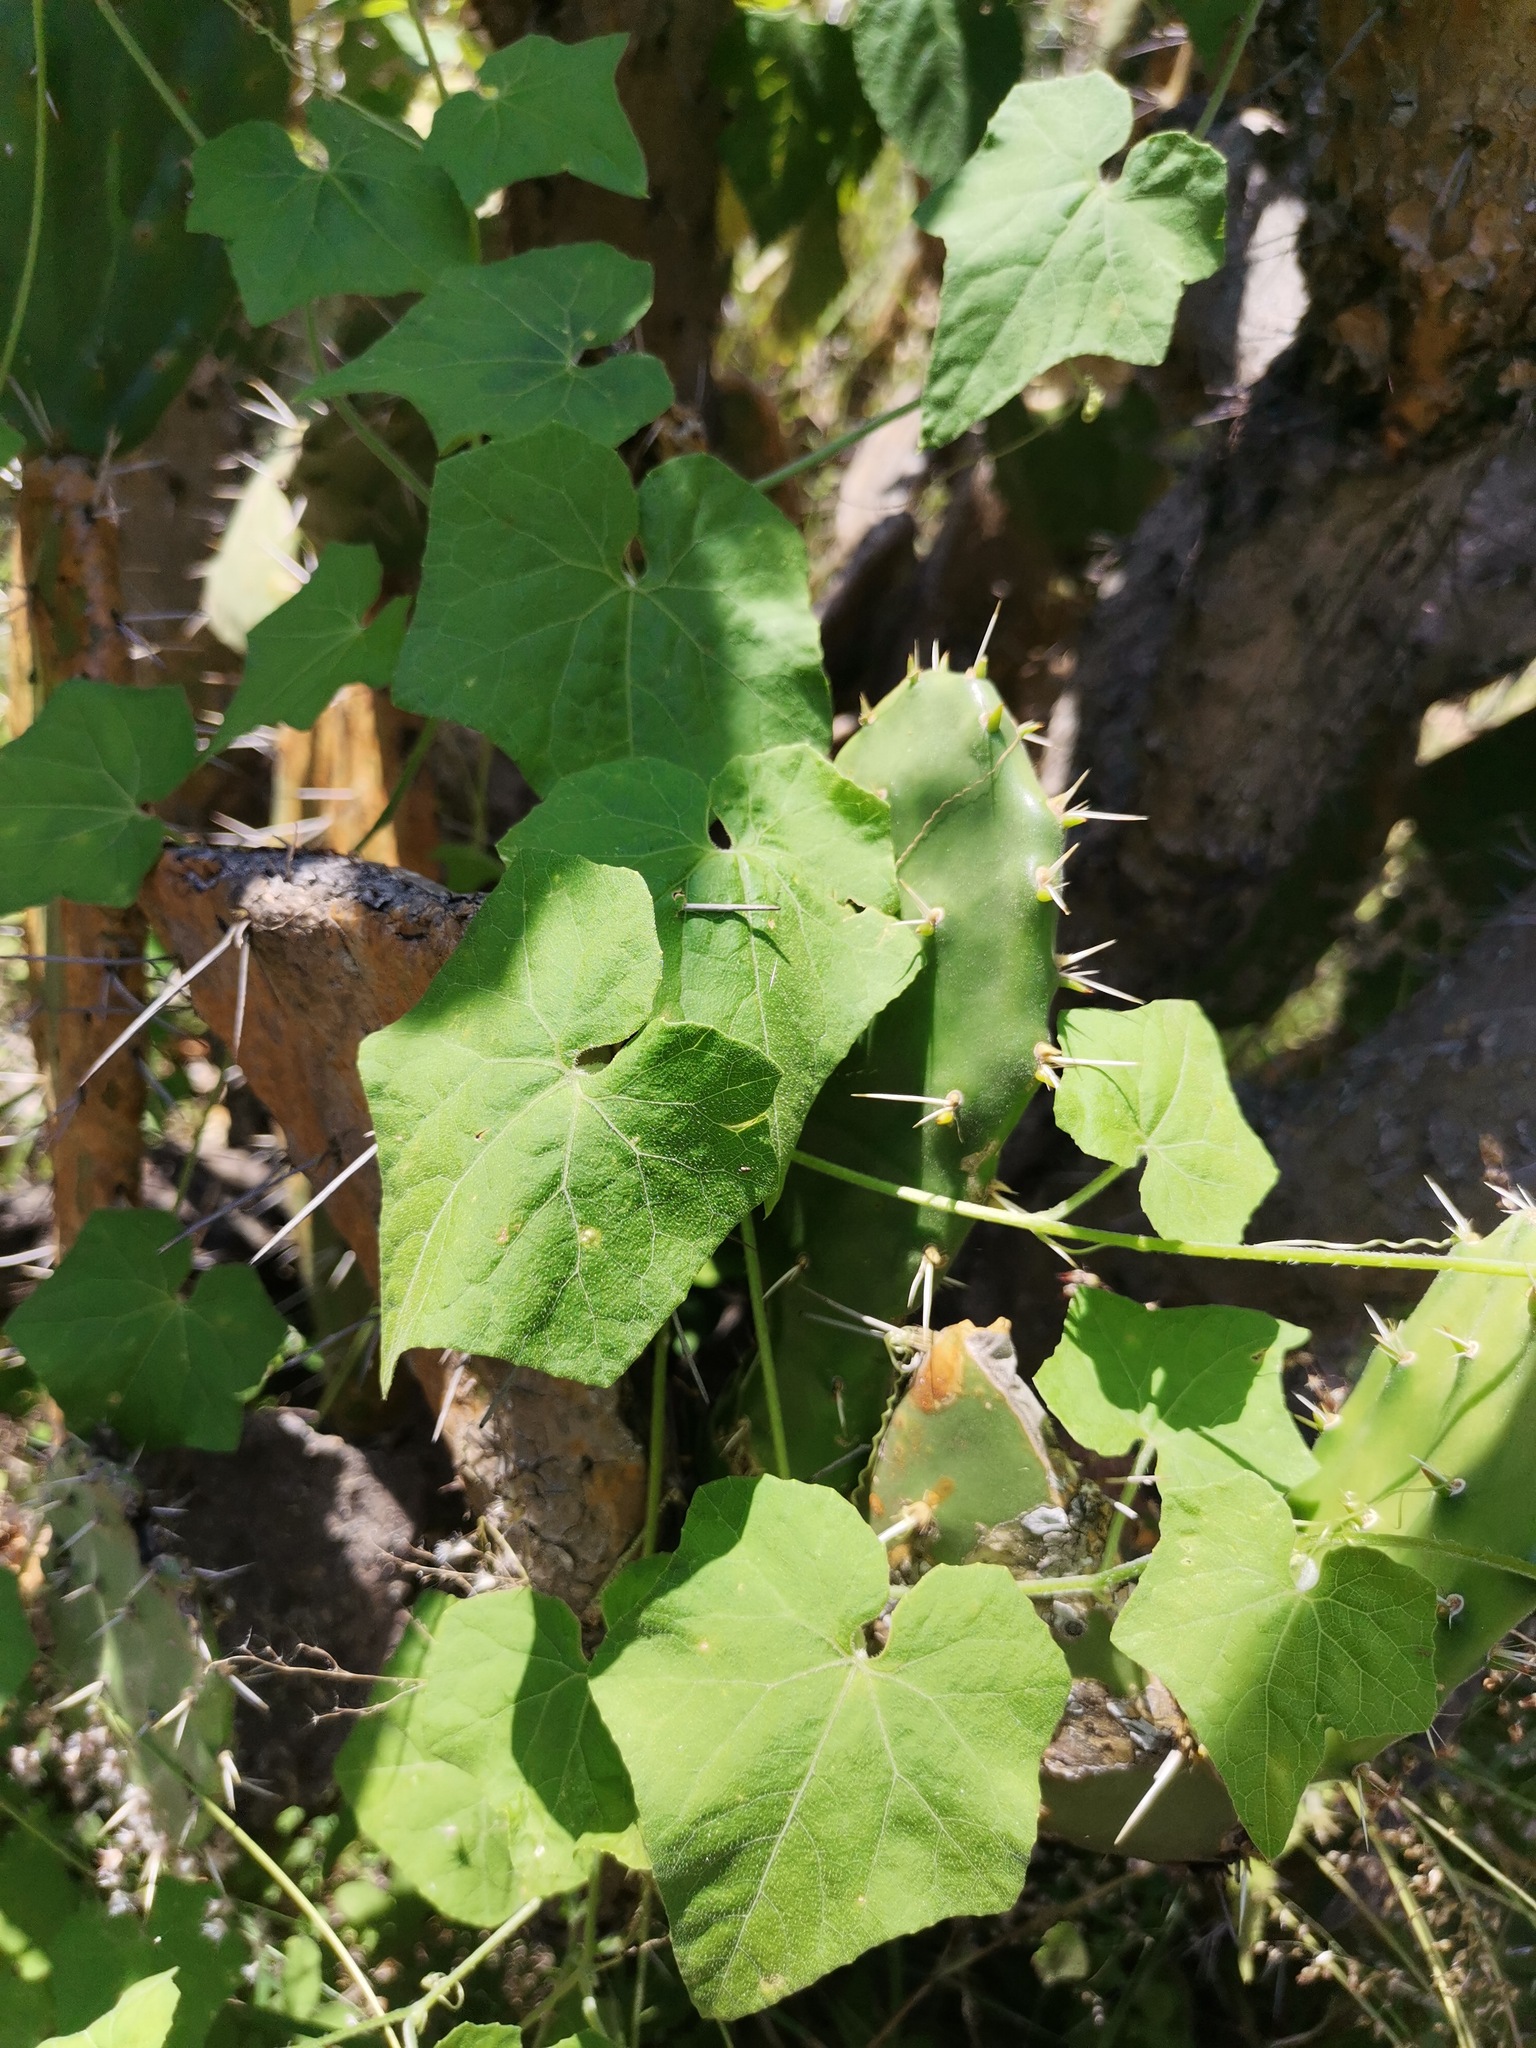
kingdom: Plantae
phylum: Tracheophyta
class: Magnoliopsida
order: Cucurbitales
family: Cucurbitaceae
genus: Sicyos
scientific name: Sicyos angulatus
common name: Angled burr cucumber
